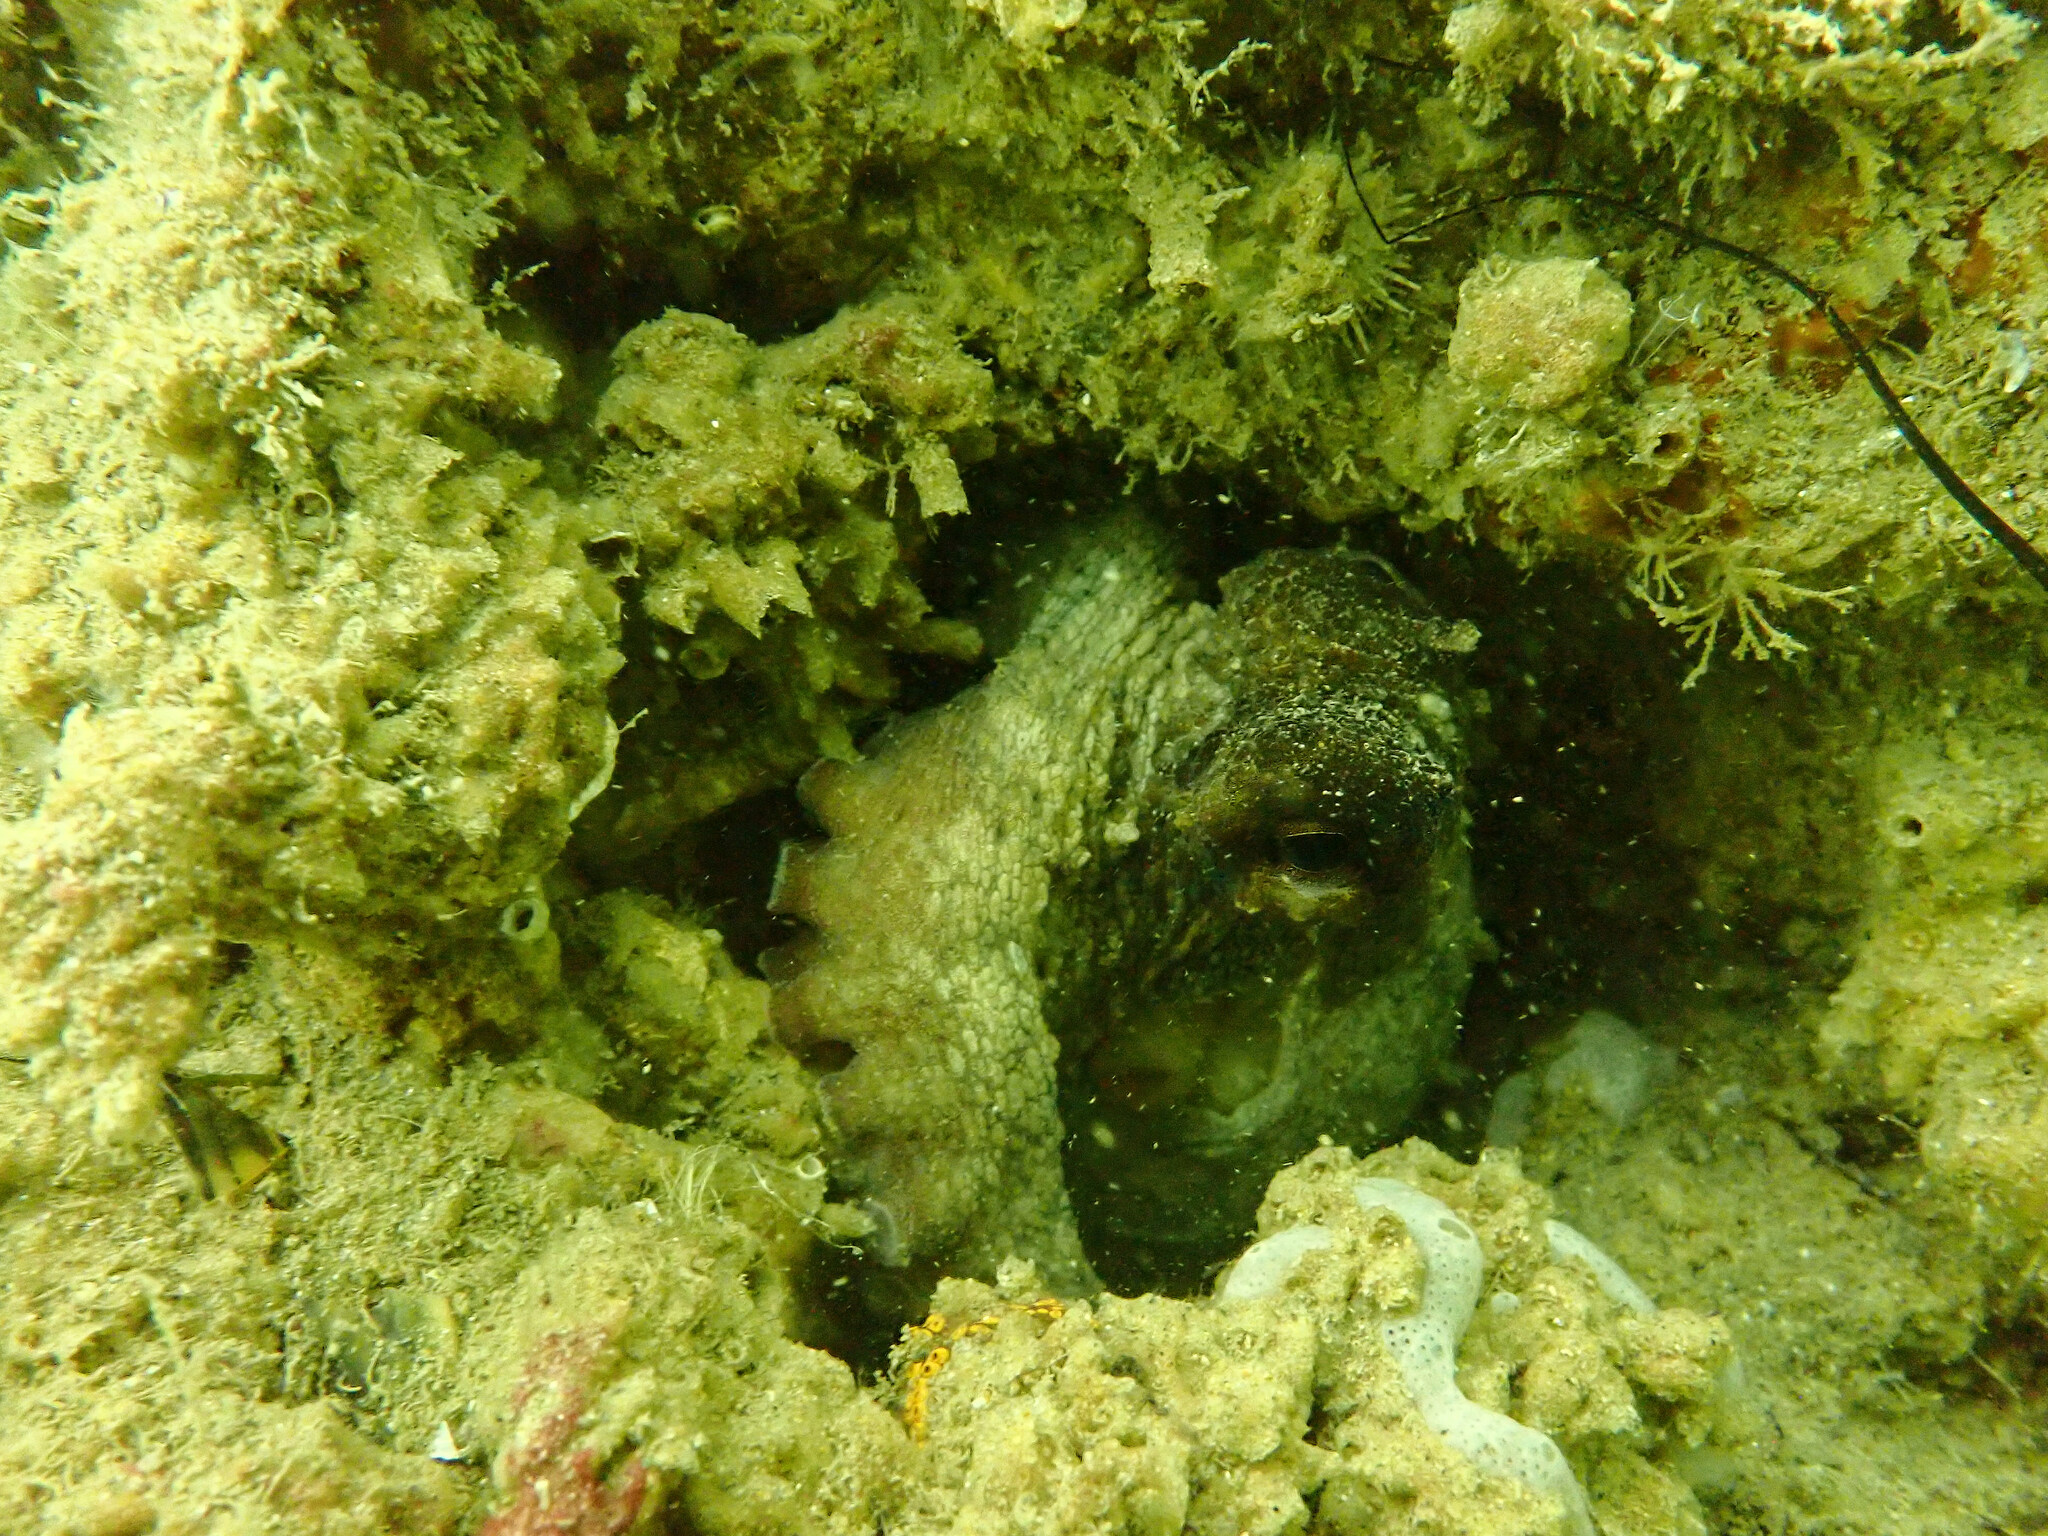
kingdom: Animalia
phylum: Mollusca
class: Cephalopoda
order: Octopoda
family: Octopodidae
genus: Octopus
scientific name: Octopus vulgaris
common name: Common octopus
